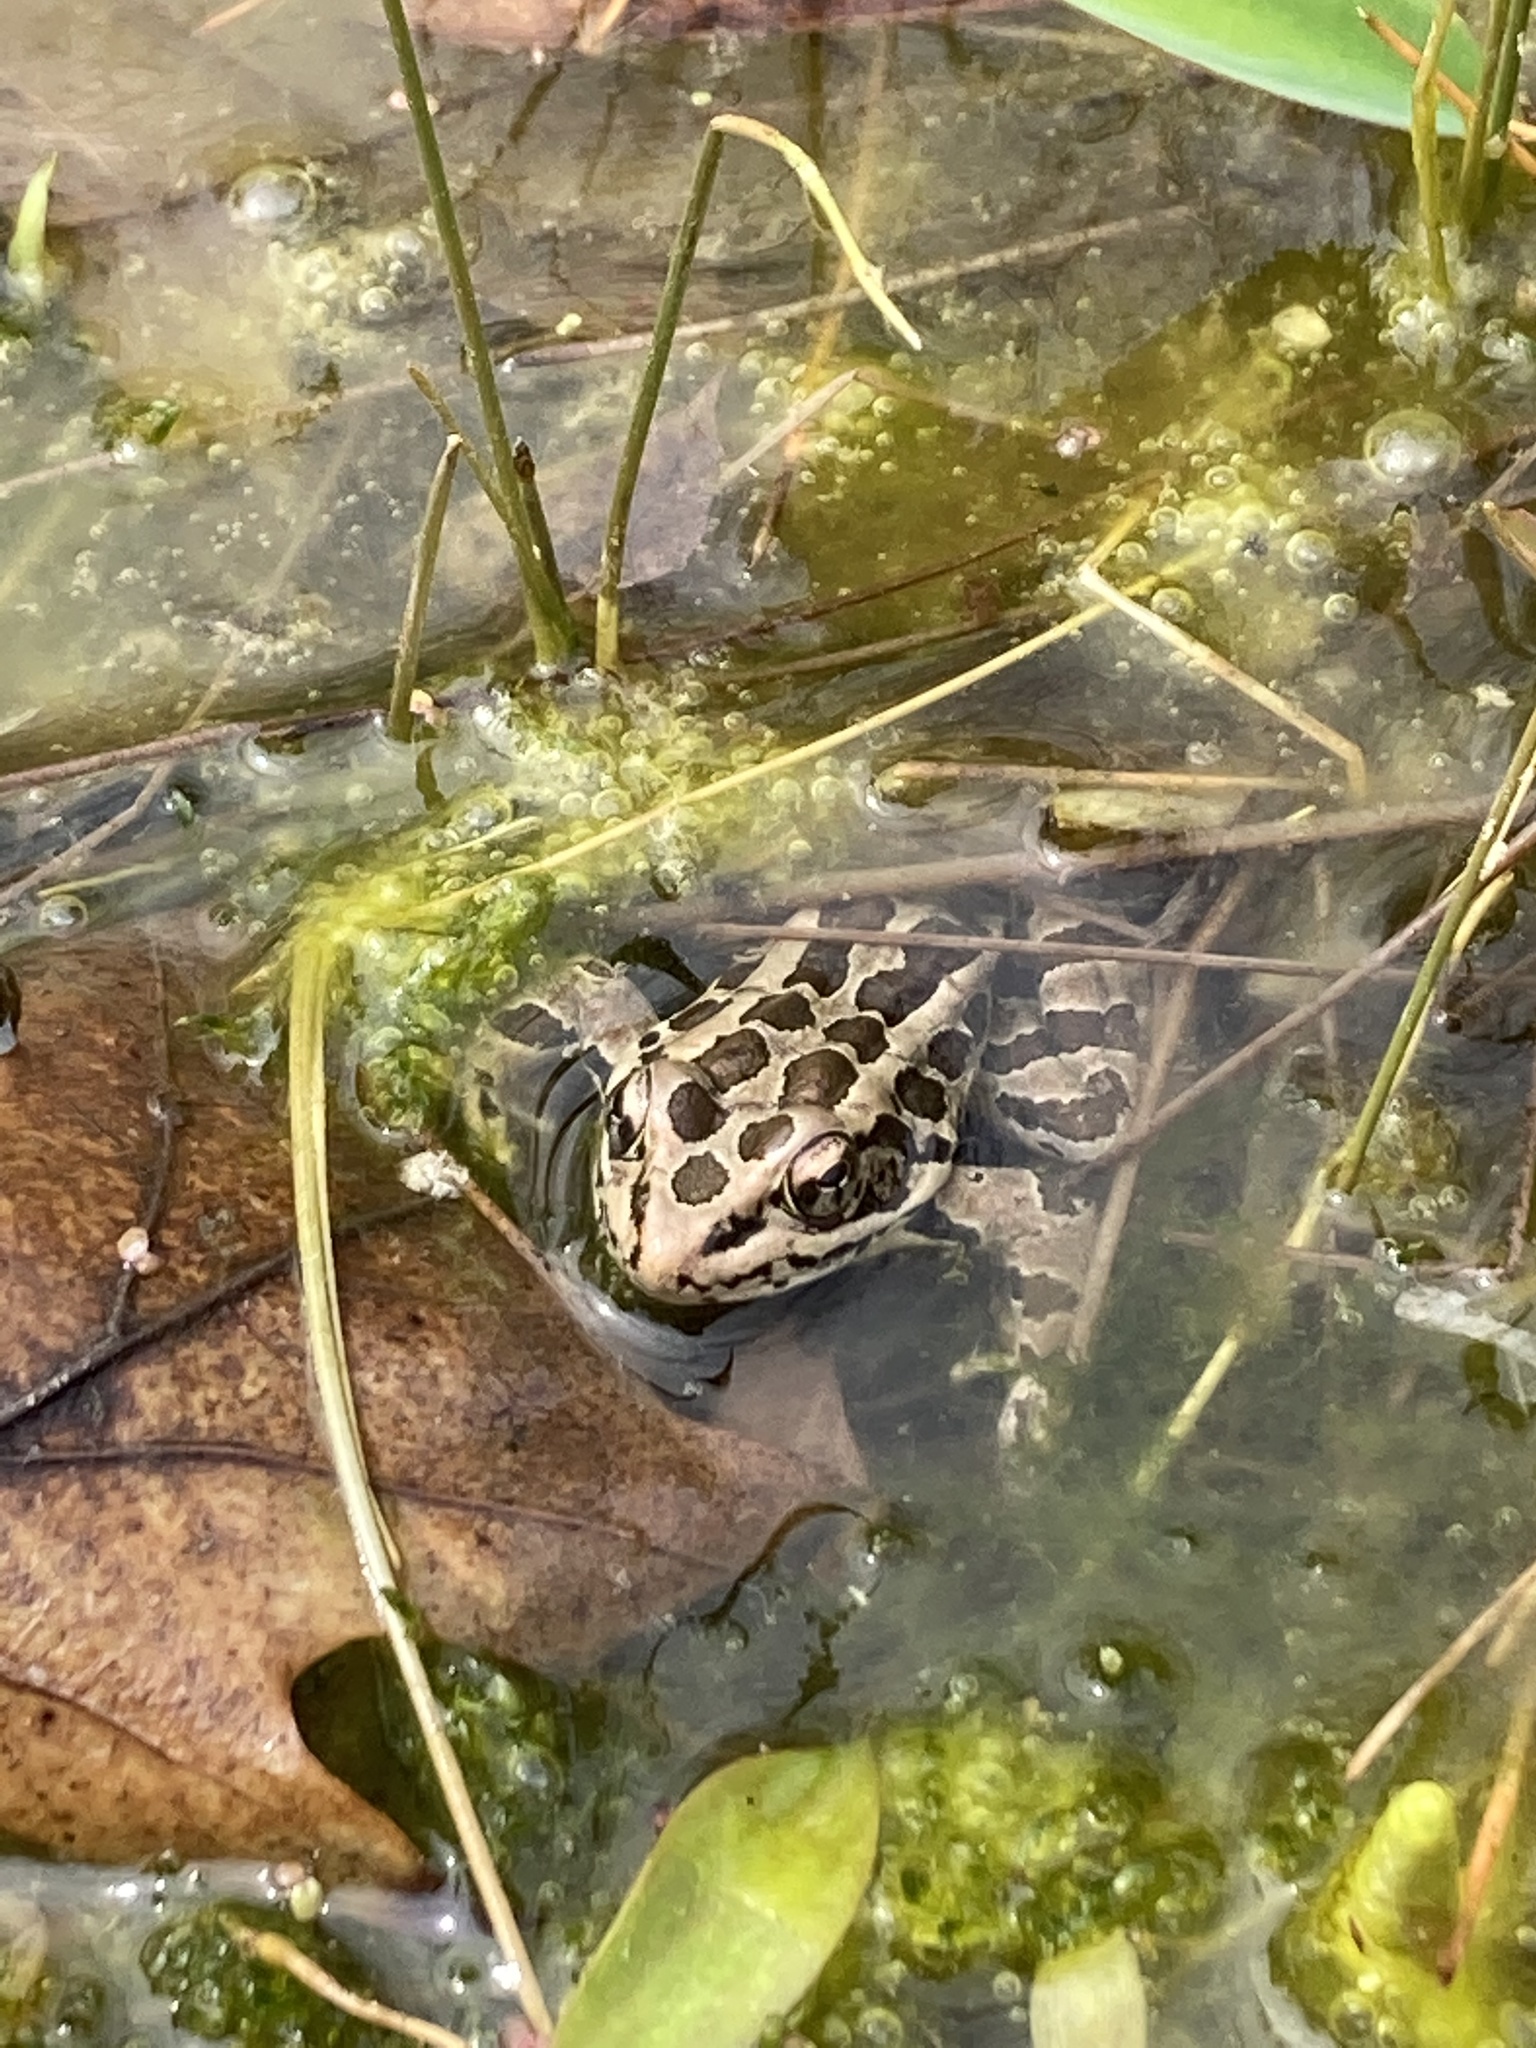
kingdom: Animalia
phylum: Chordata
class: Amphibia
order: Anura
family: Ranidae
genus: Lithobates
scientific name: Lithobates palustris
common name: Pickerel frog
